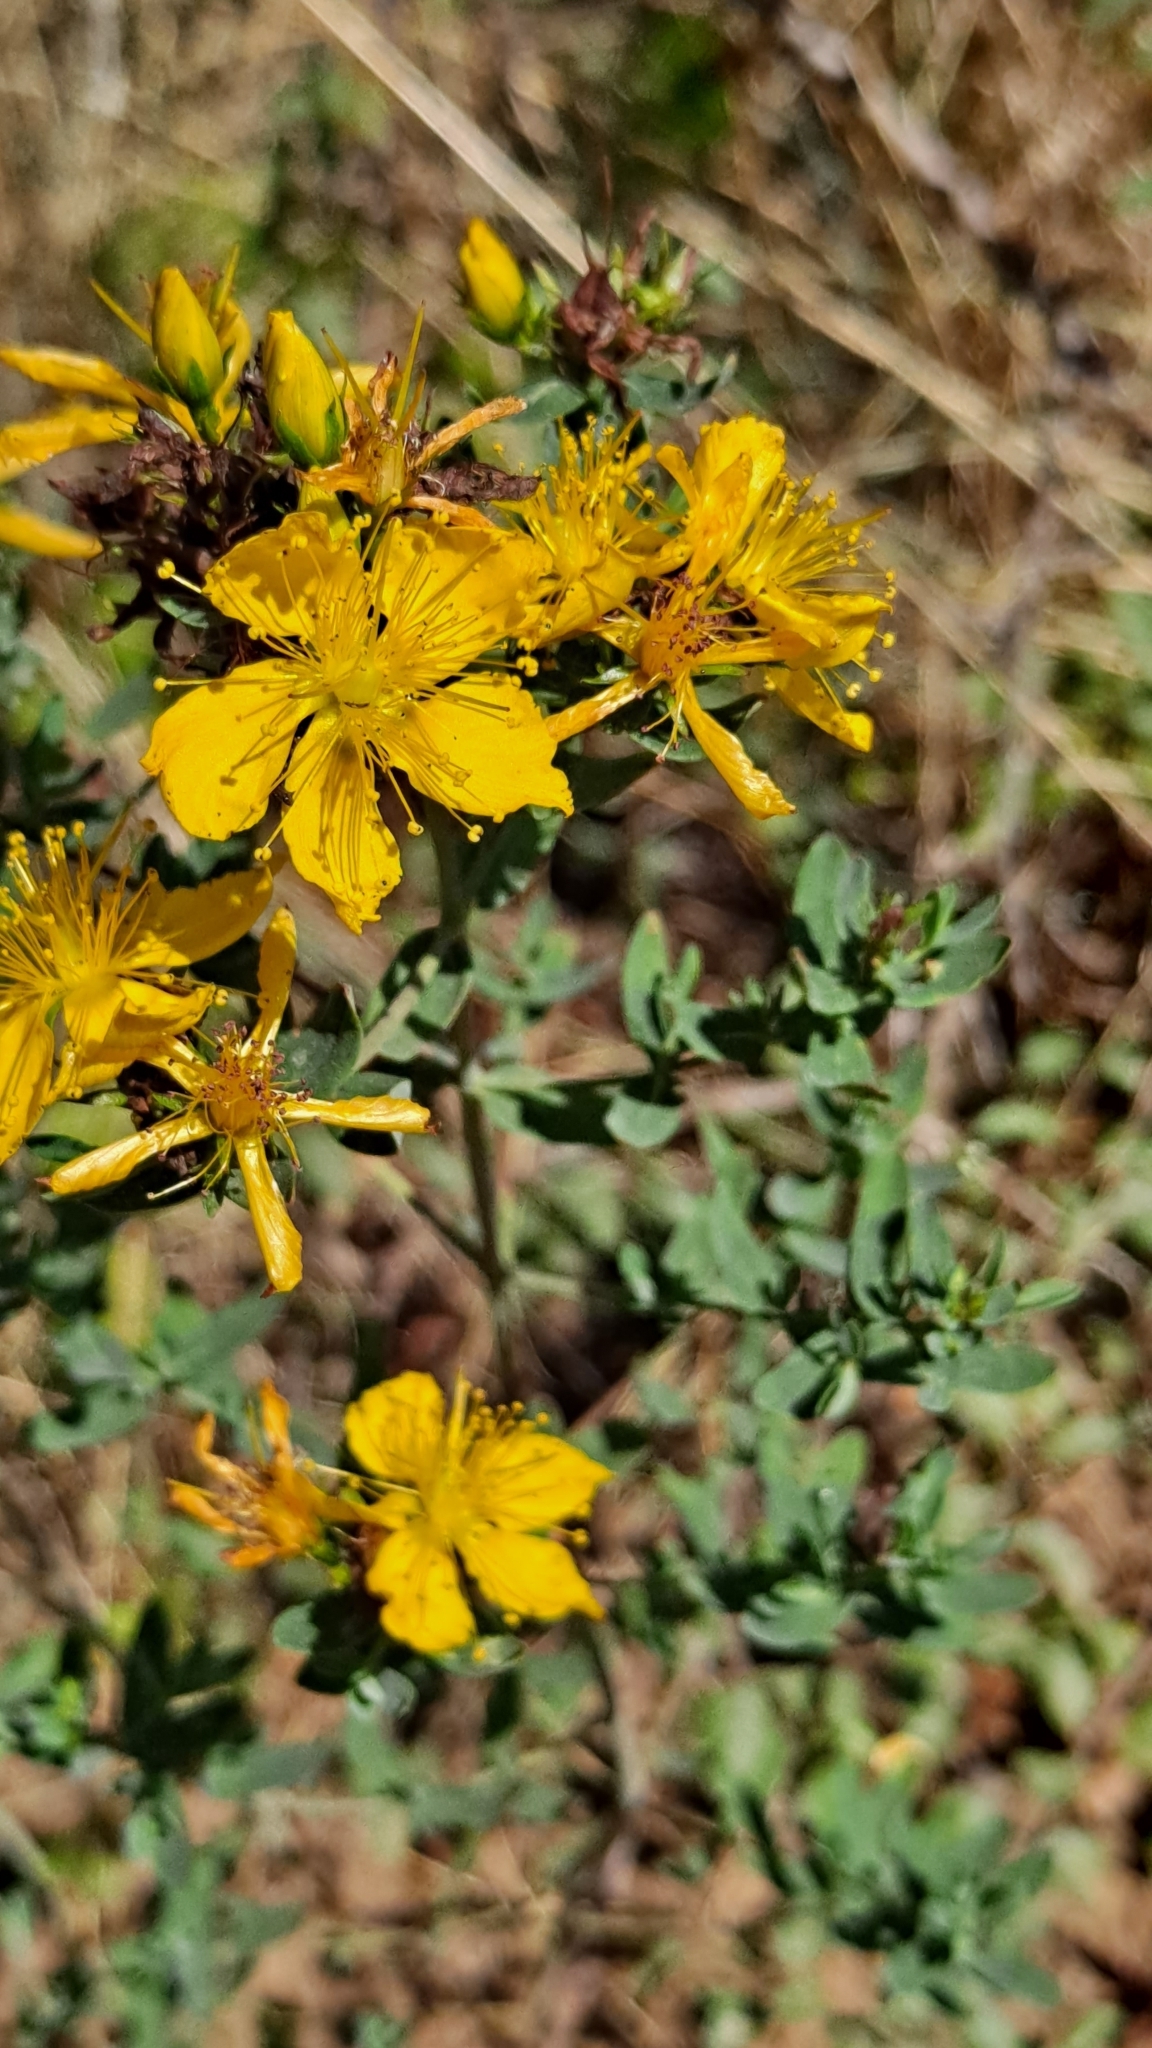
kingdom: Plantae
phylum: Tracheophyta
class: Magnoliopsida
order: Malpighiales
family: Hypericaceae
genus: Hypericum
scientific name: Hypericum perforatum
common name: Common st. johnswort
